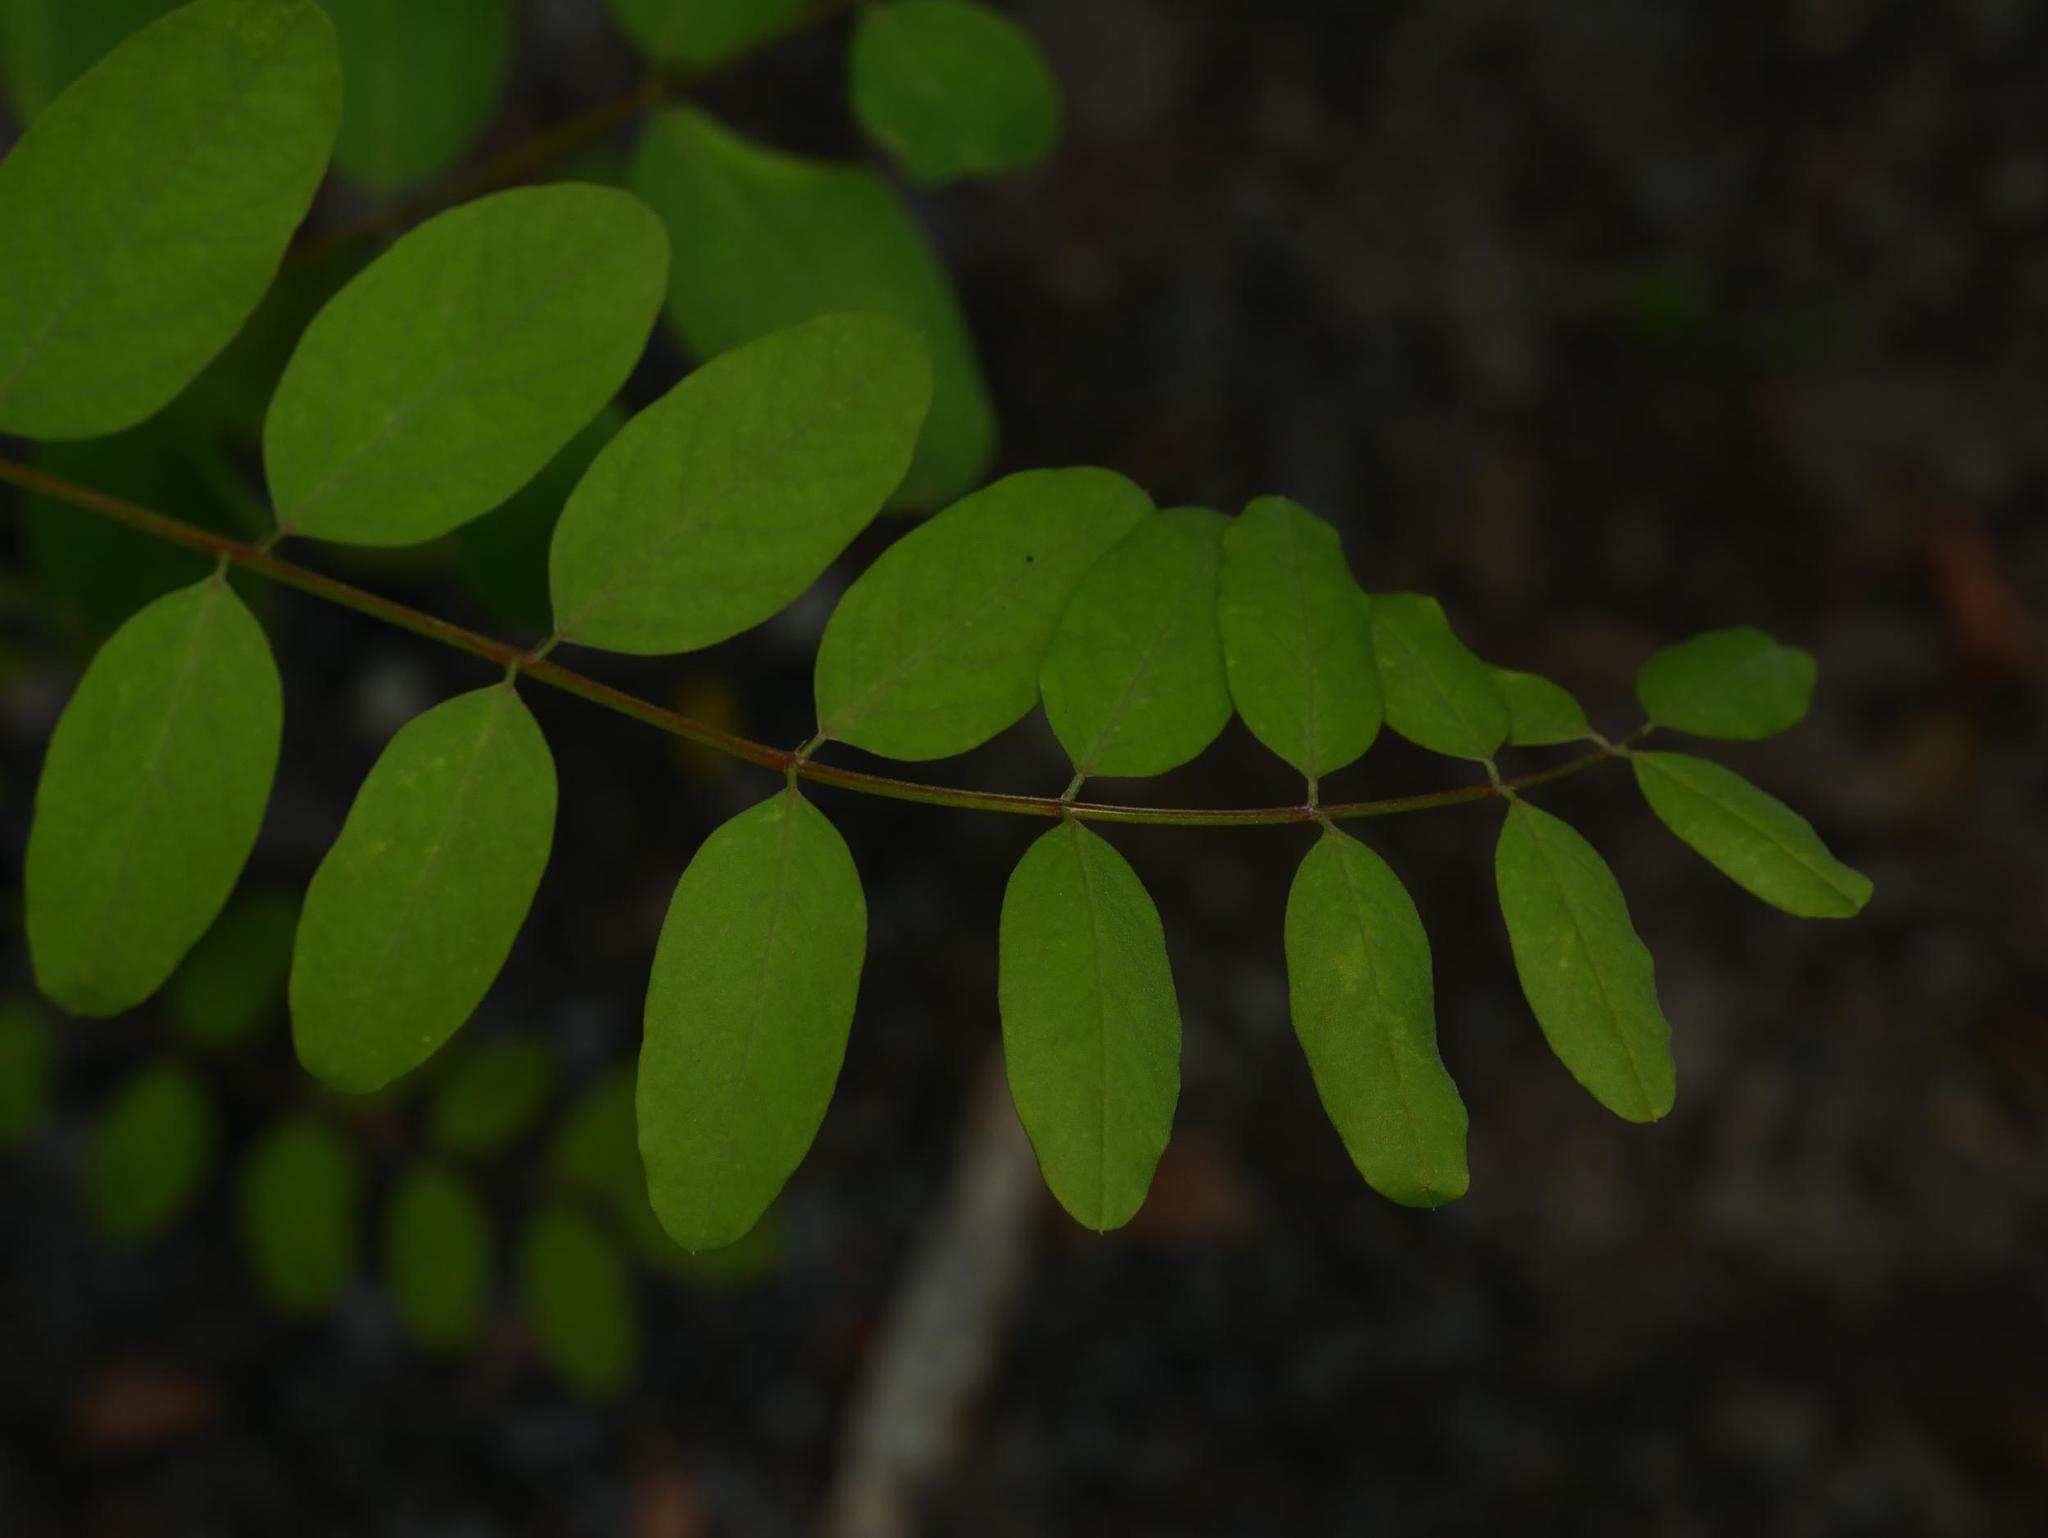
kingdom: Plantae
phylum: Tracheophyta
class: Magnoliopsida
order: Fabales
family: Fabaceae
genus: Robinia
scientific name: Robinia pseudoacacia
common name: Black locust
